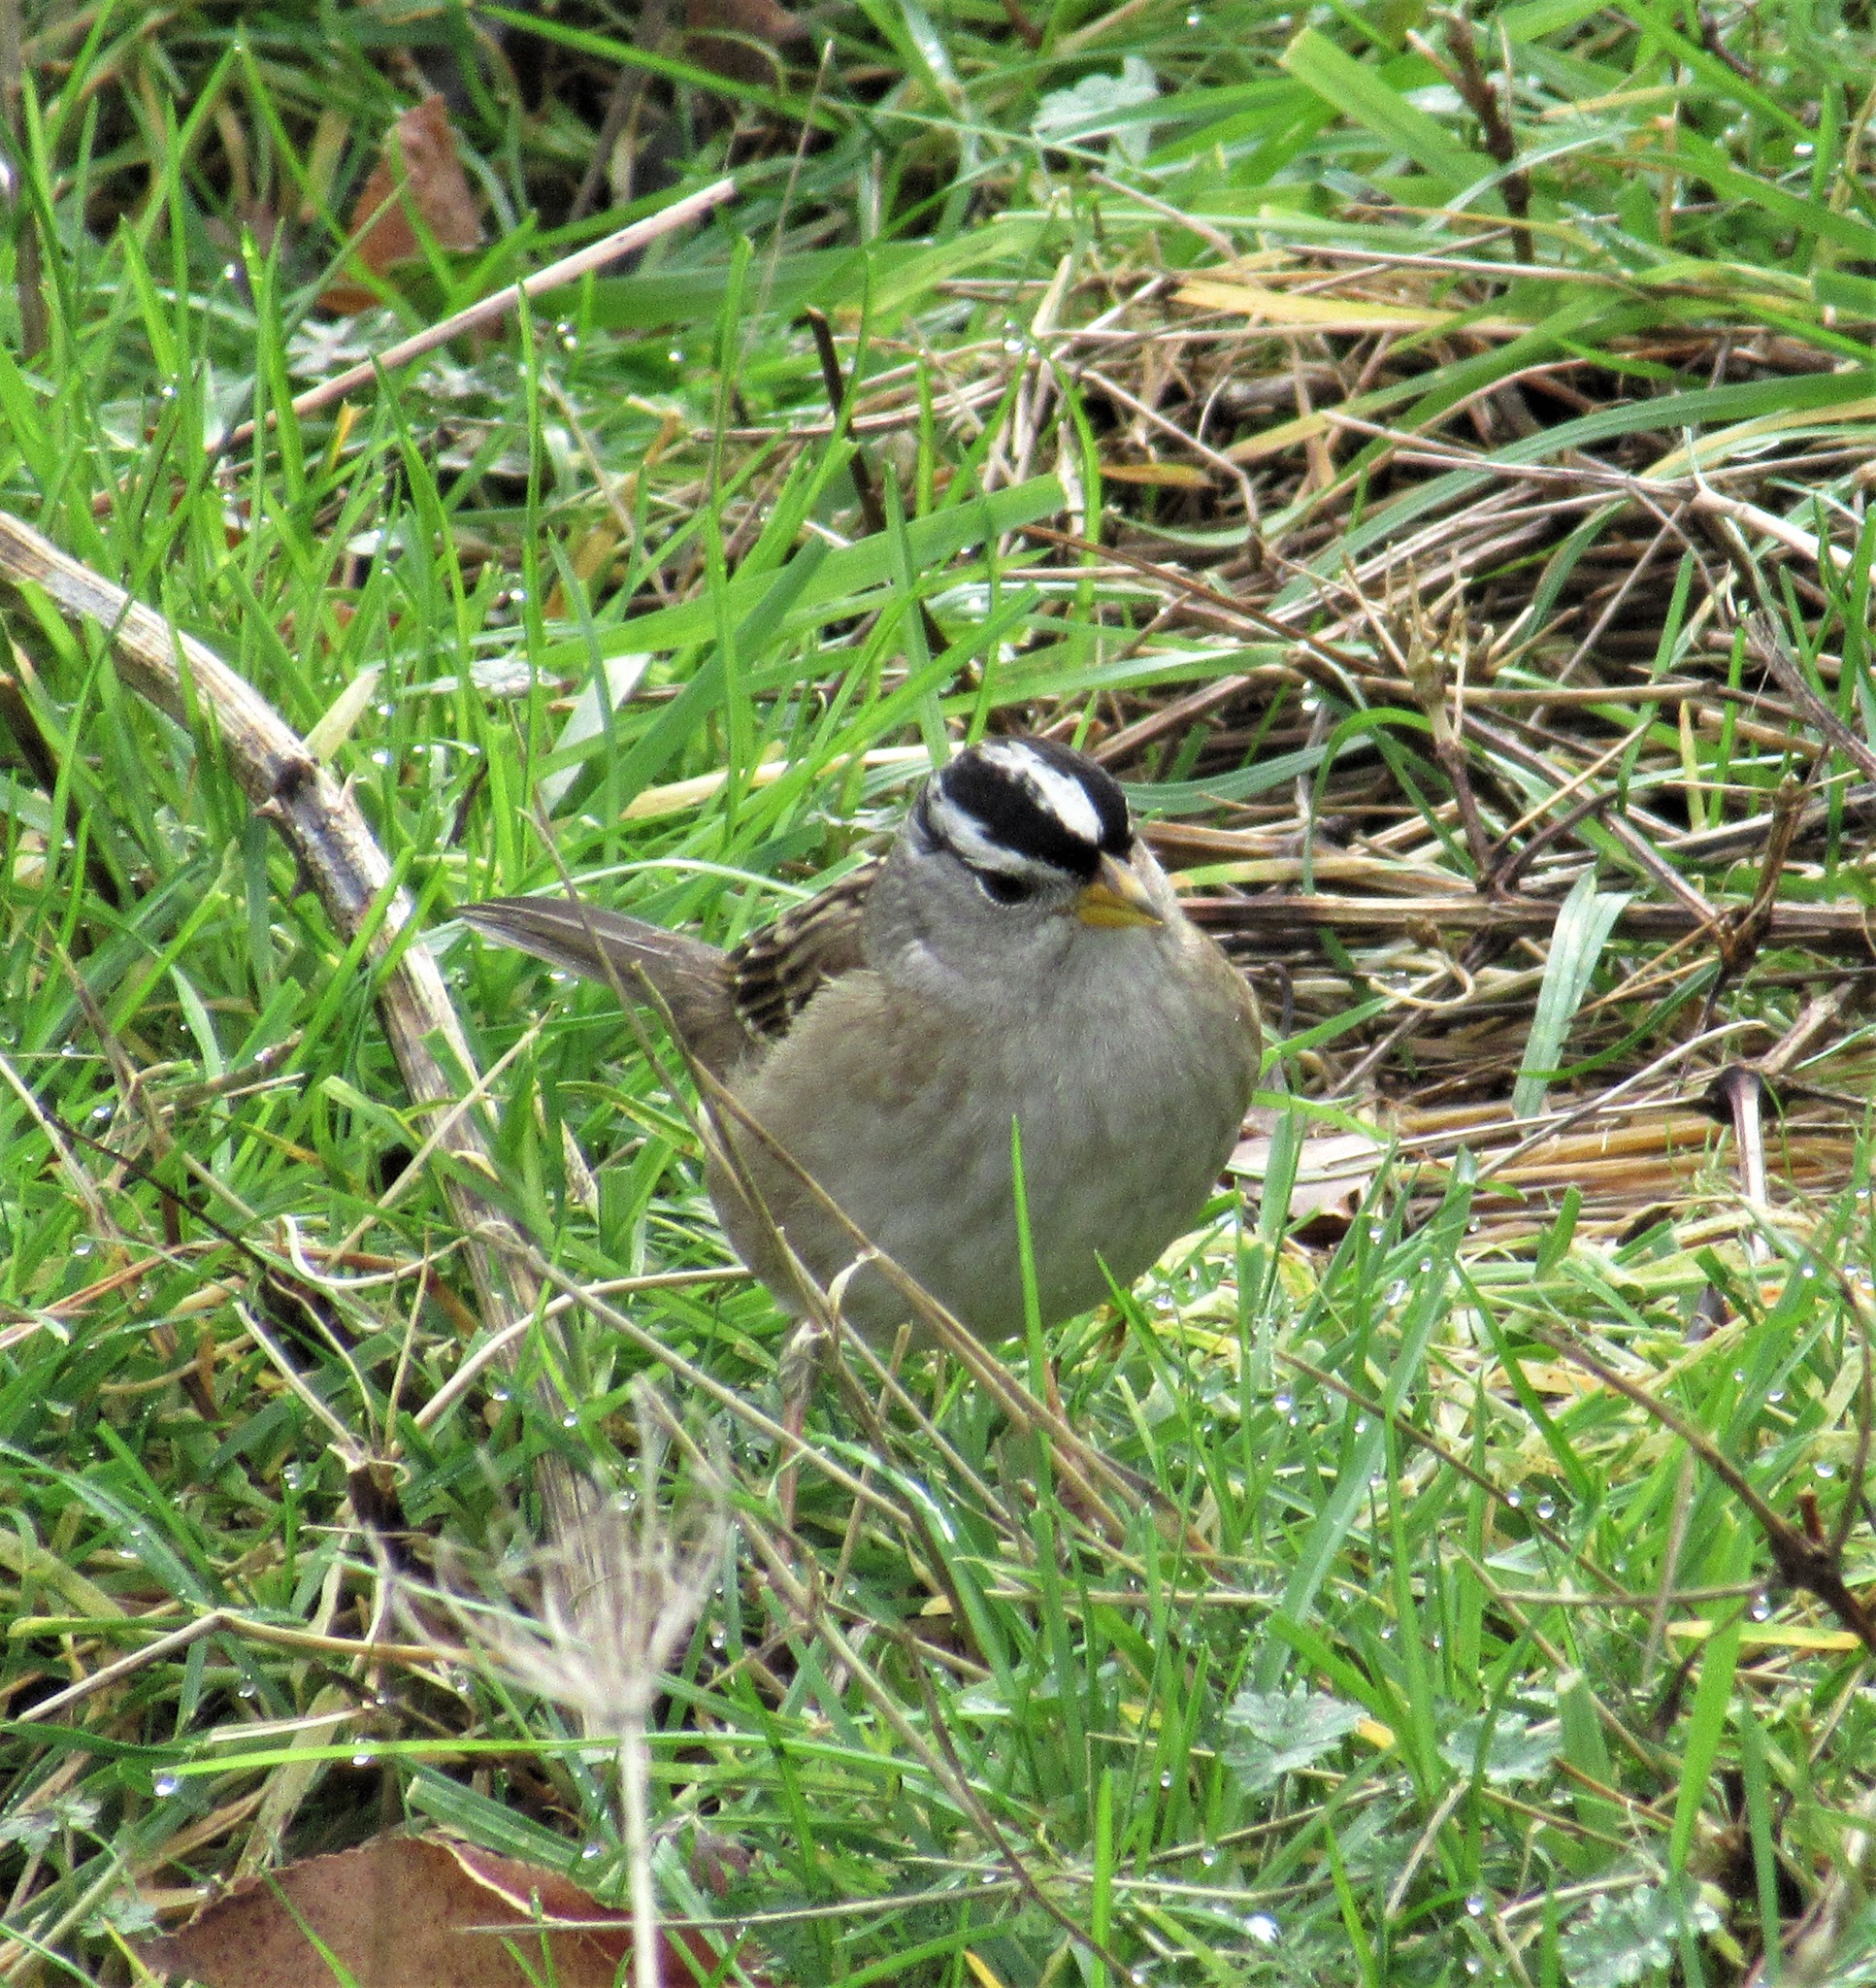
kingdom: Animalia
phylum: Chordata
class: Aves
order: Passeriformes
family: Passerellidae
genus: Zonotrichia
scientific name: Zonotrichia leucophrys
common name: White-crowned sparrow
